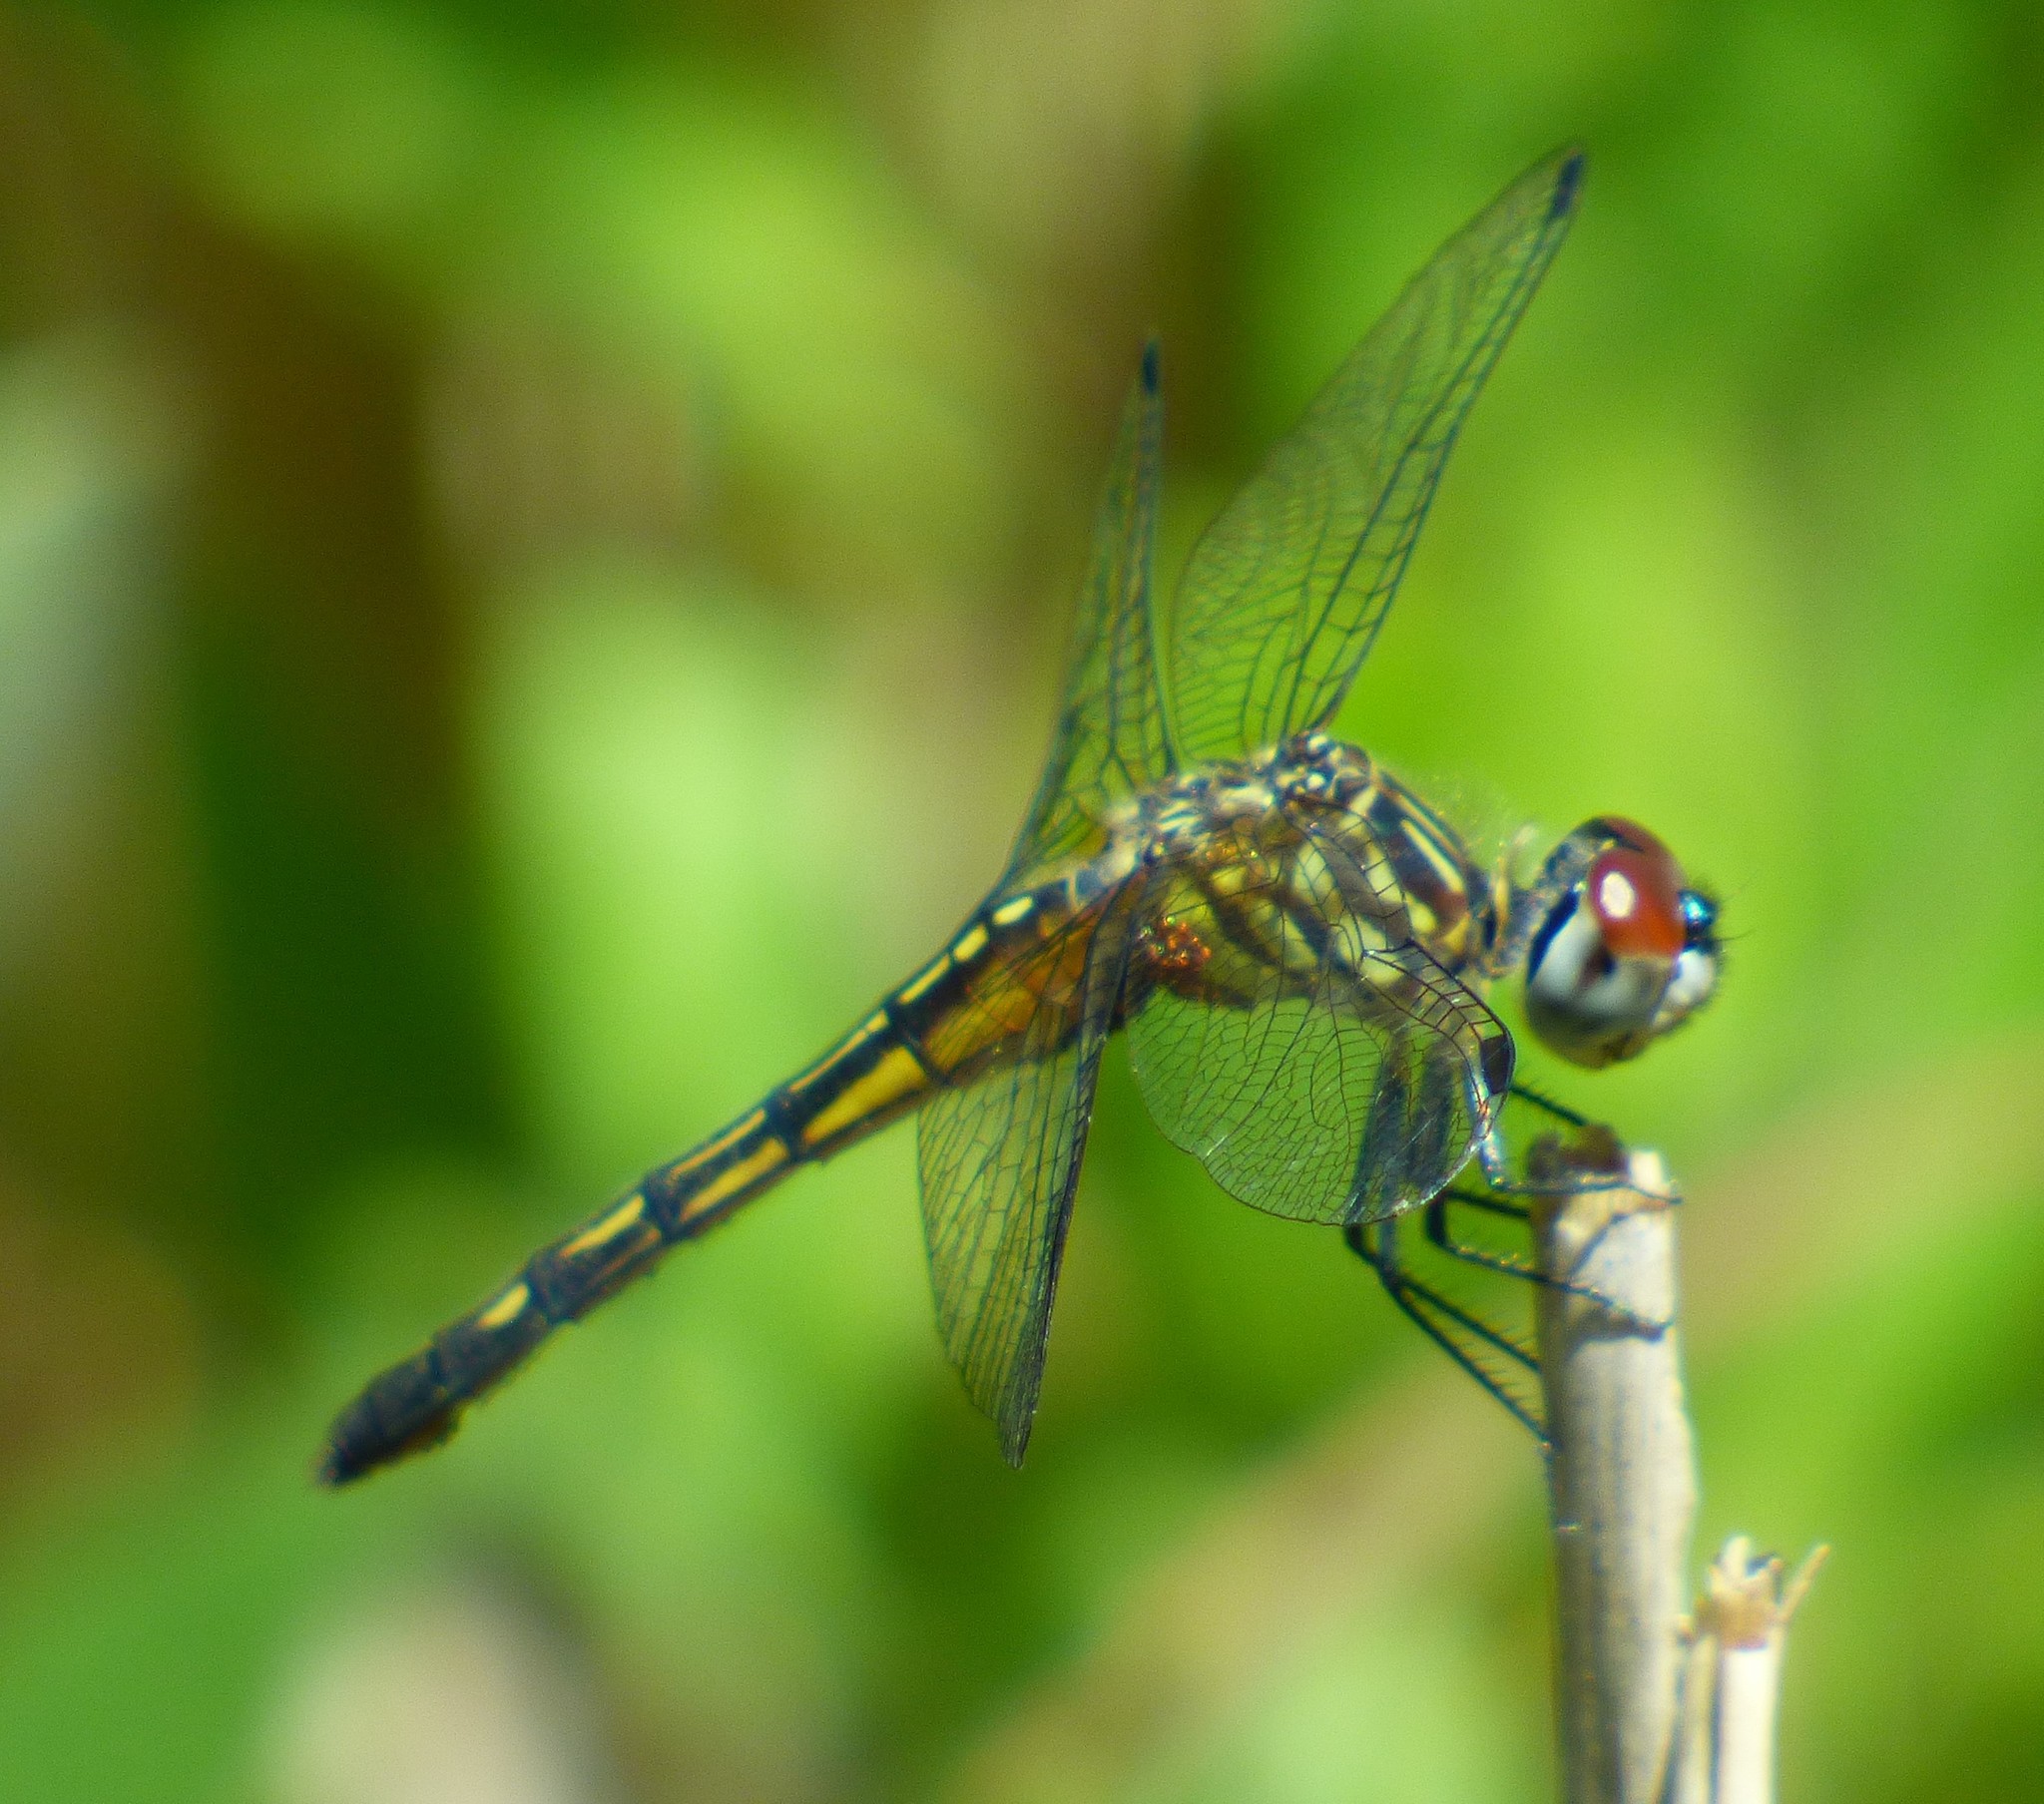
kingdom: Animalia
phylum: Arthropoda
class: Insecta
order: Odonata
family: Libellulidae
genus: Pachydiplax
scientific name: Pachydiplax longipennis
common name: Blue dasher
